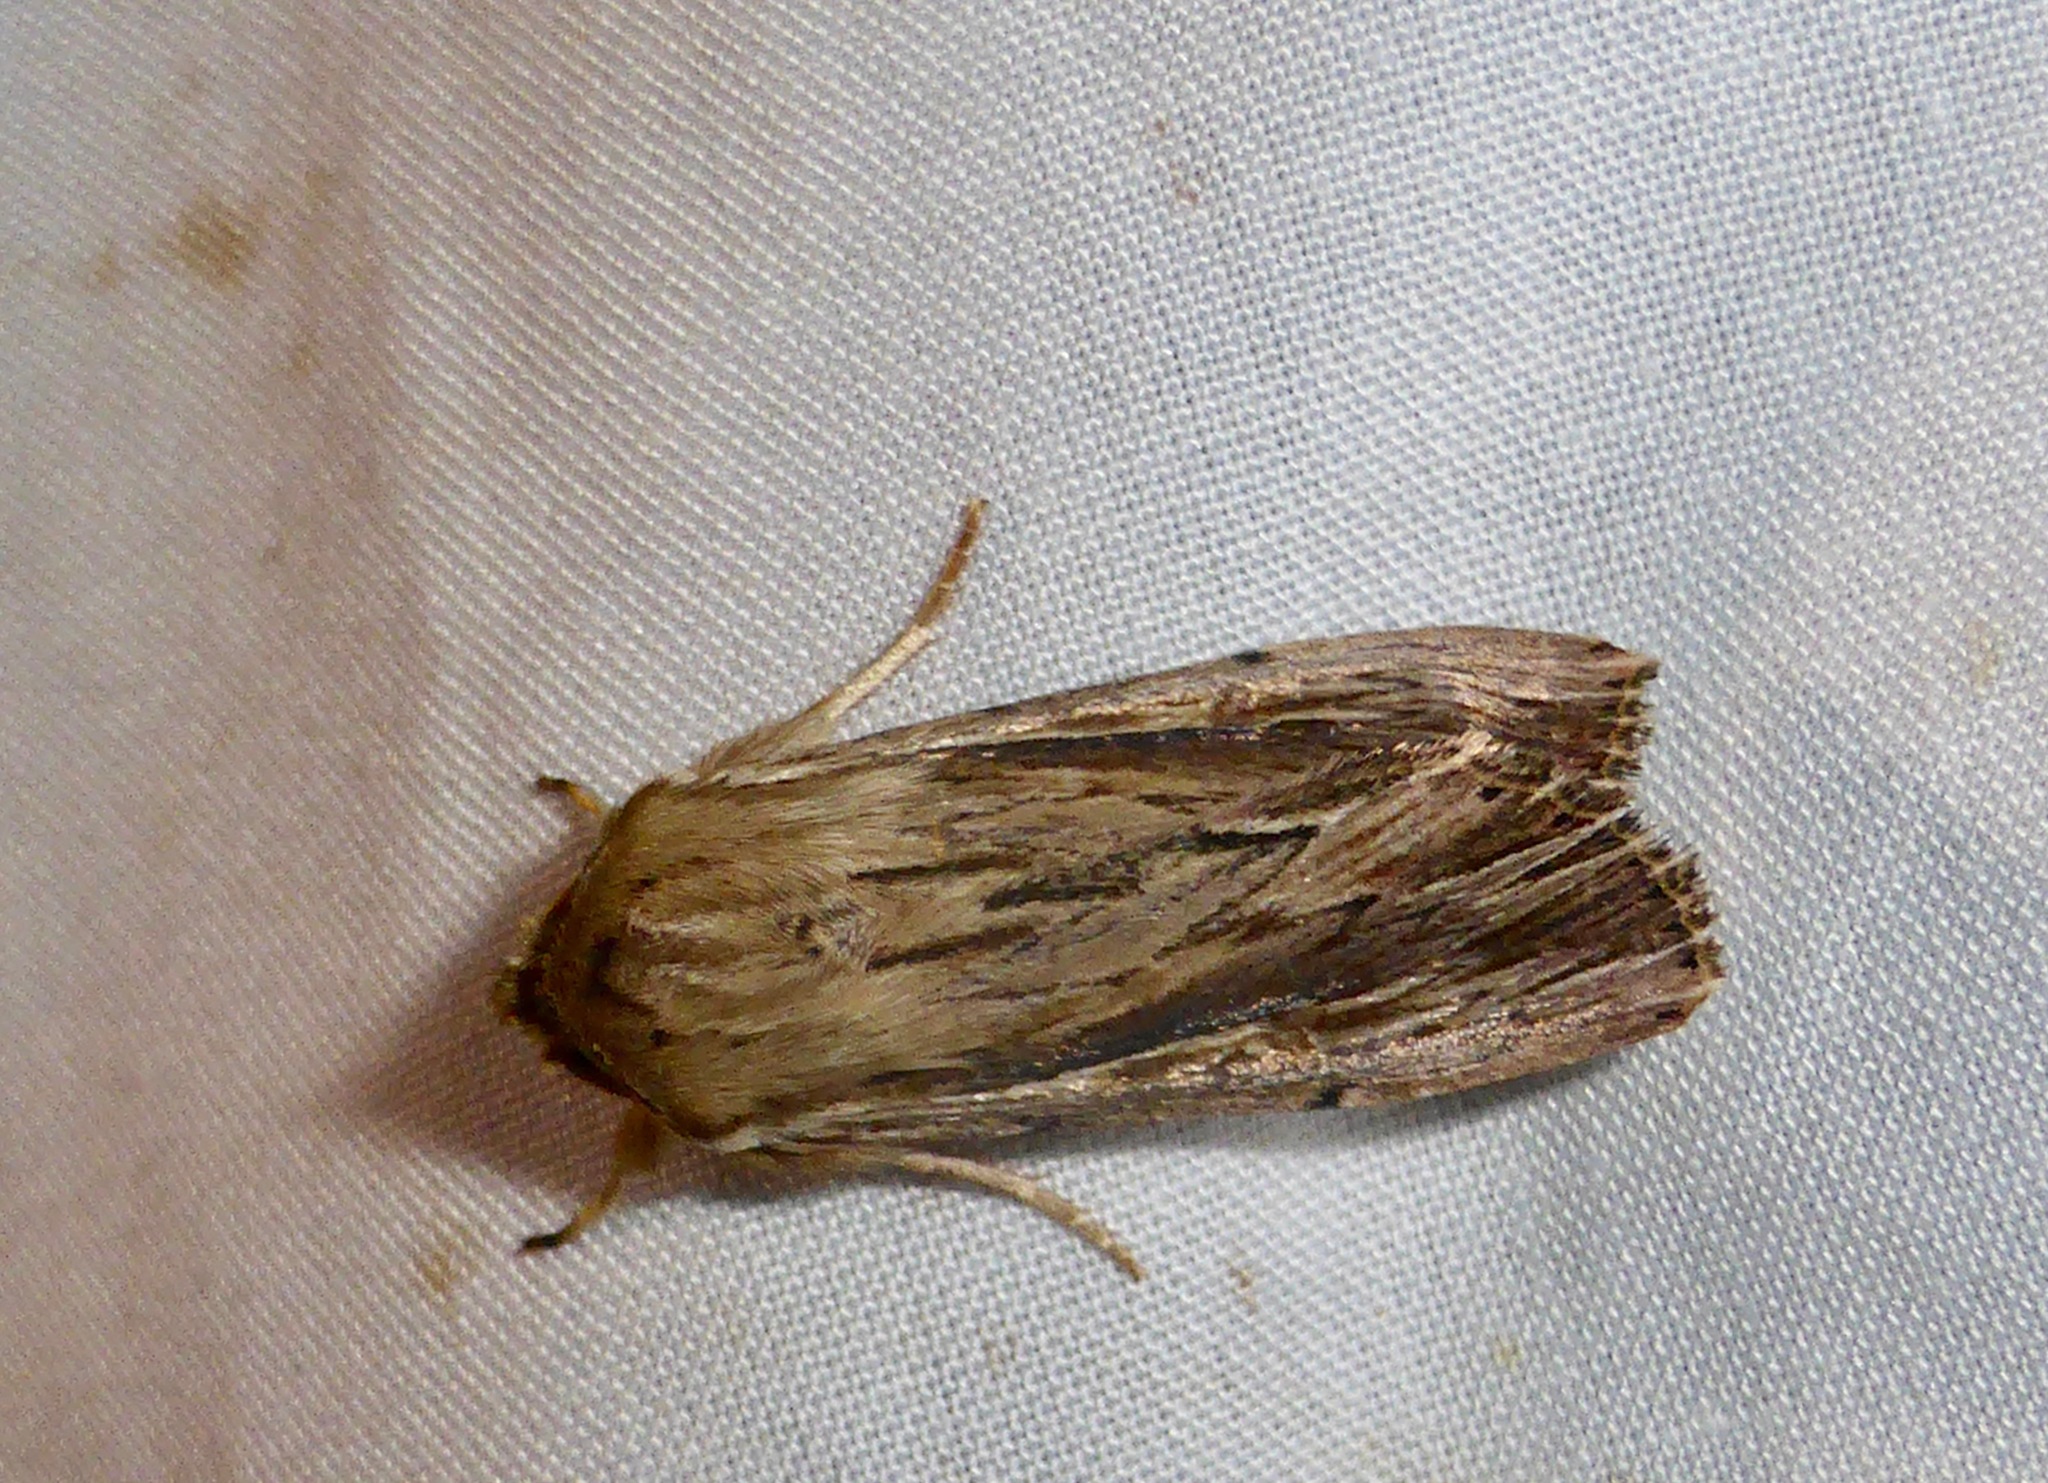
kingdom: Animalia
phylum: Arthropoda
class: Insecta
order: Lepidoptera
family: Noctuidae
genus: Persectania
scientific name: Persectania aversa
